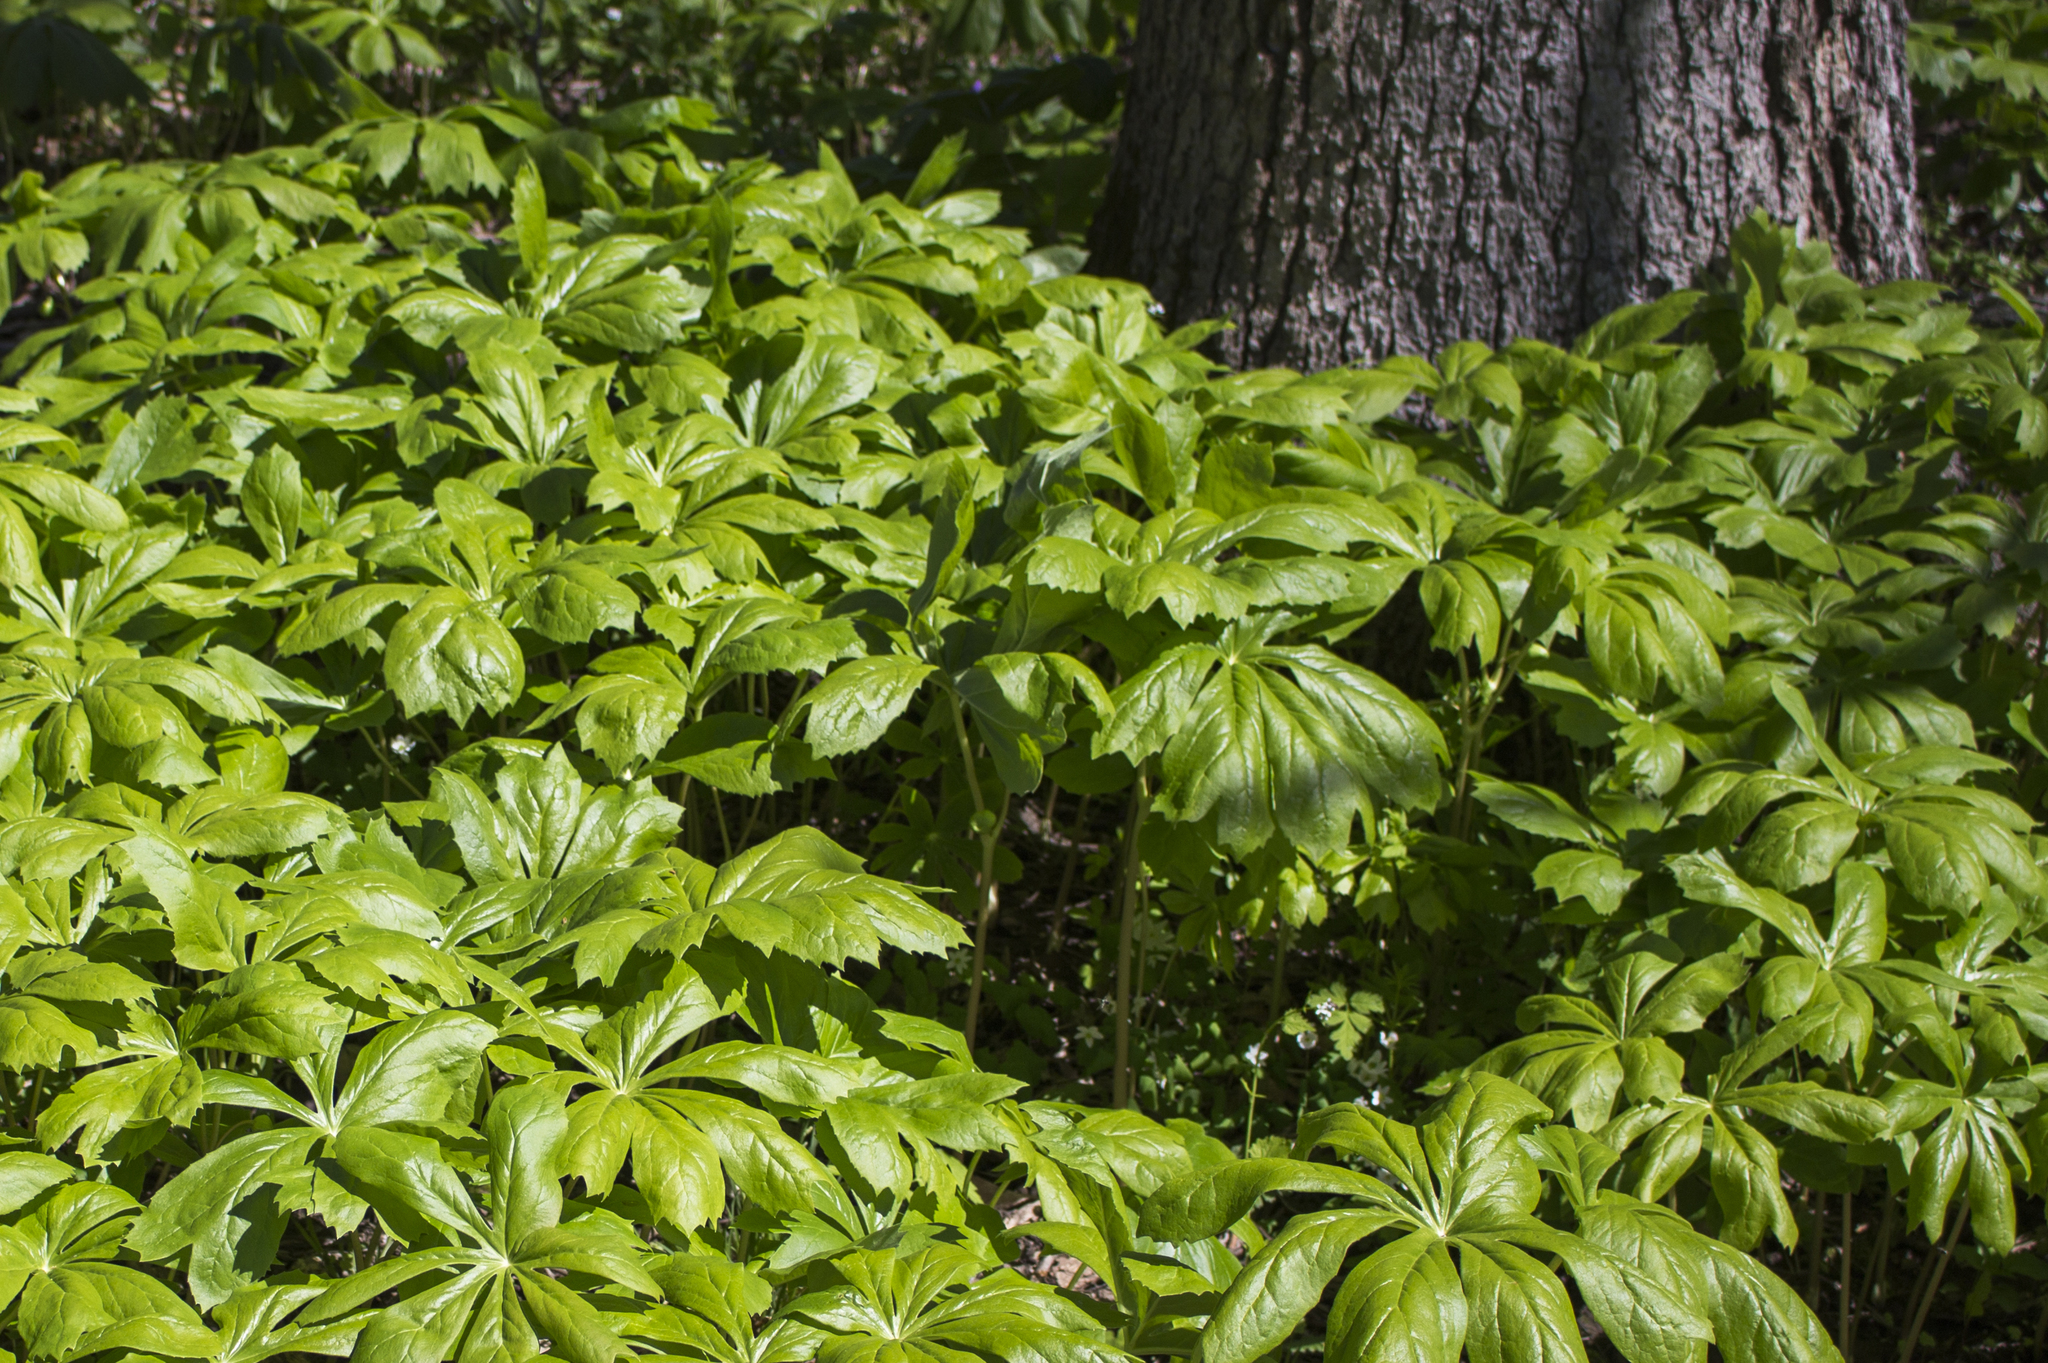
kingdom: Plantae
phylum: Tracheophyta
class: Magnoliopsida
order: Ranunculales
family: Berberidaceae
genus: Podophyllum
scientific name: Podophyllum peltatum
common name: Wild mandrake
